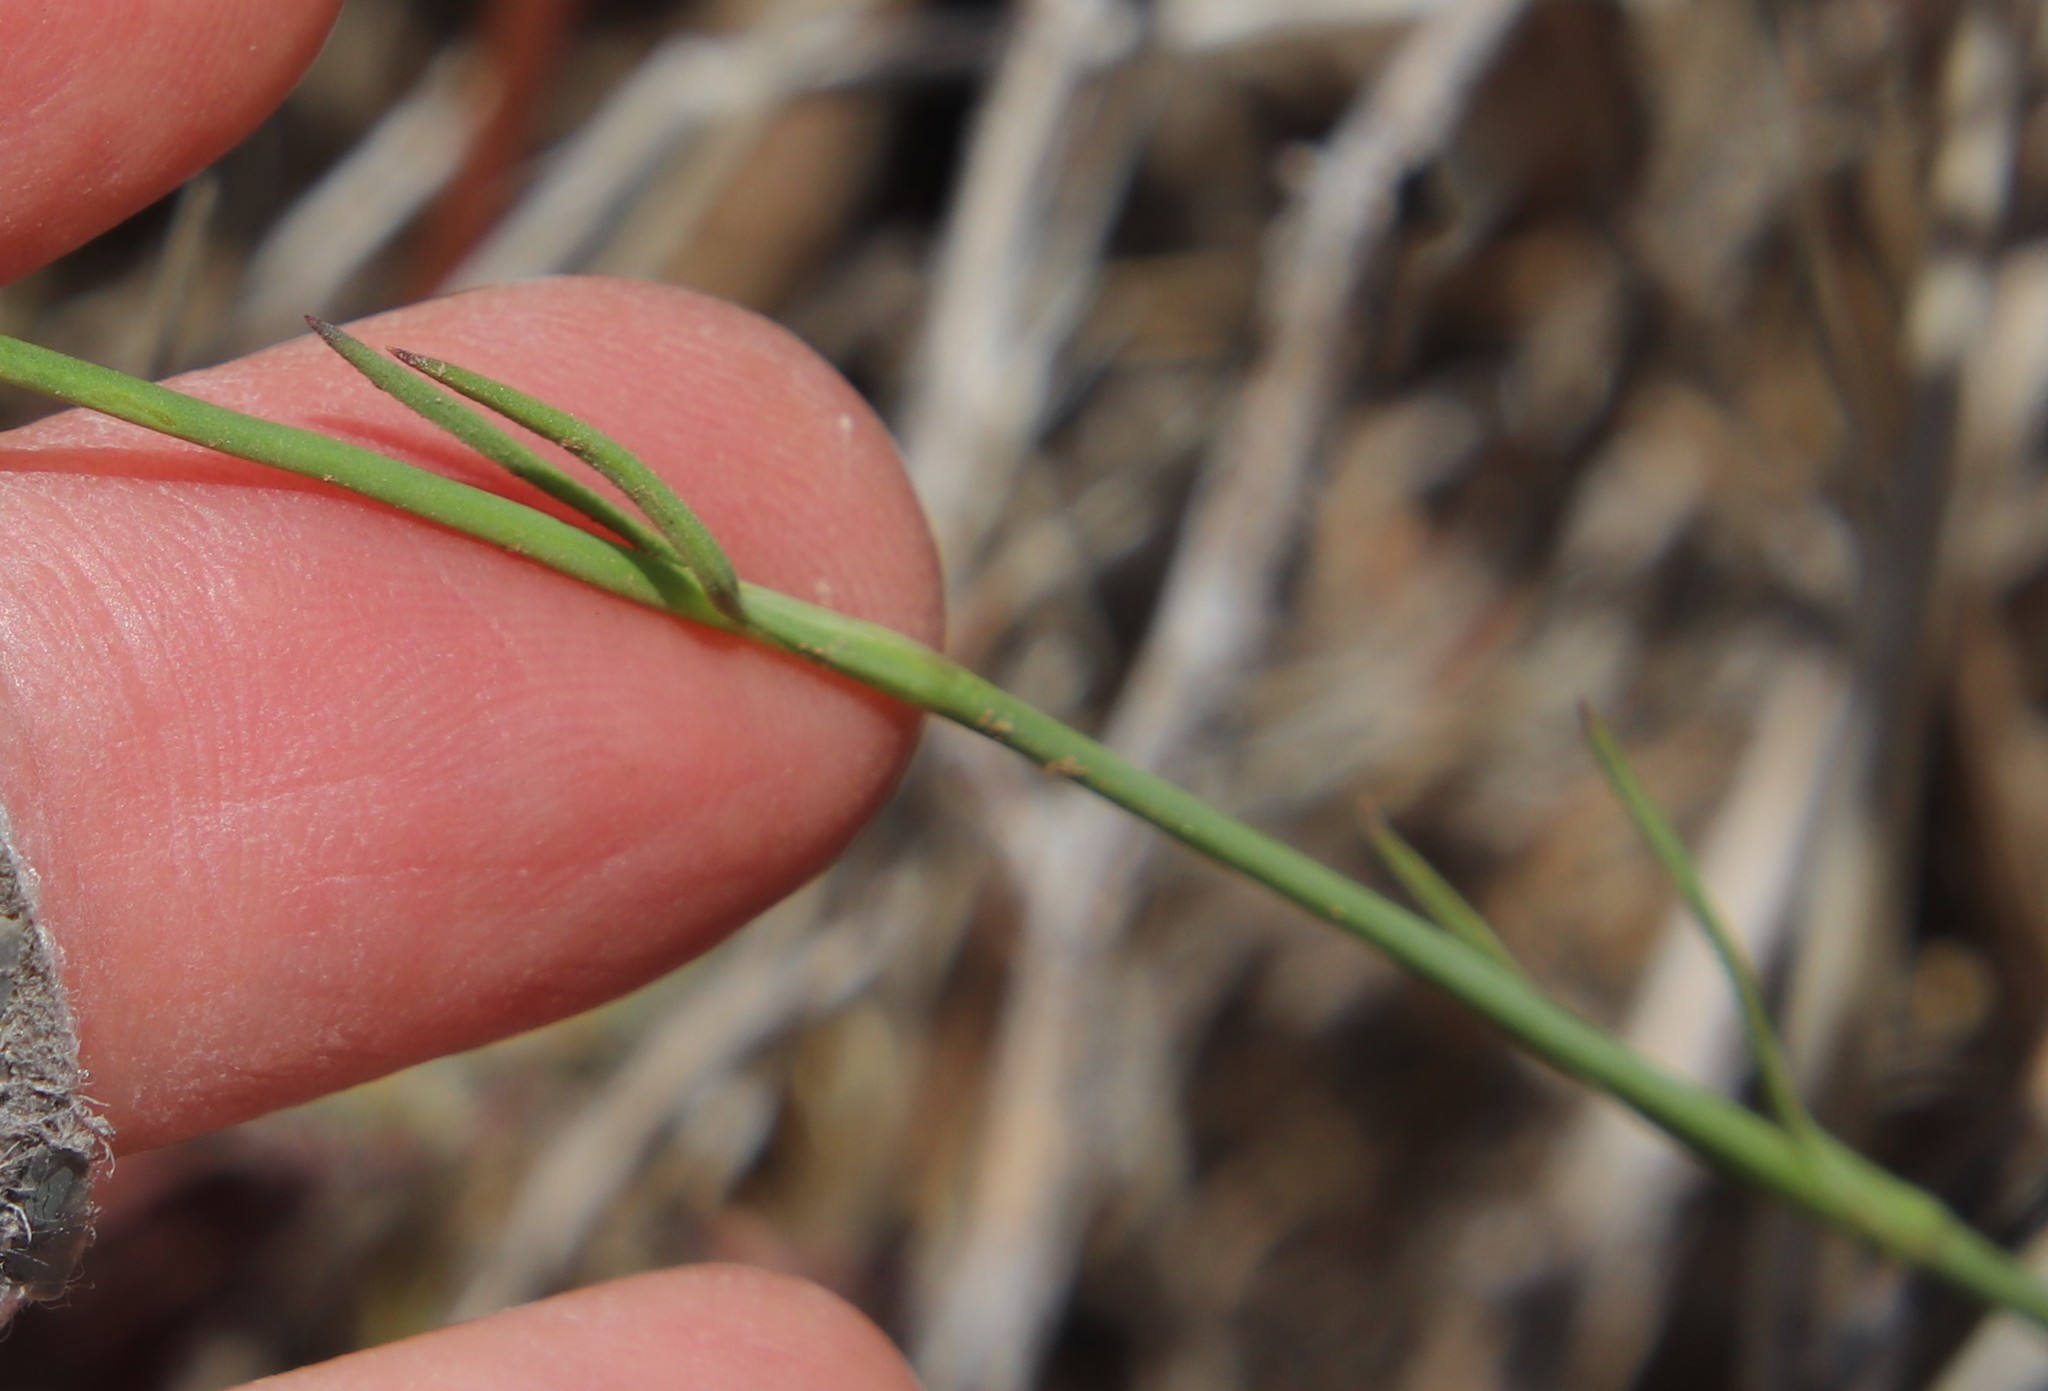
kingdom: Plantae
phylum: Tracheophyta
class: Magnoliopsida
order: Caryophyllales
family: Caryophyllaceae
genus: Petrorhagia
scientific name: Petrorhagia dubia
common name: Hairypink
